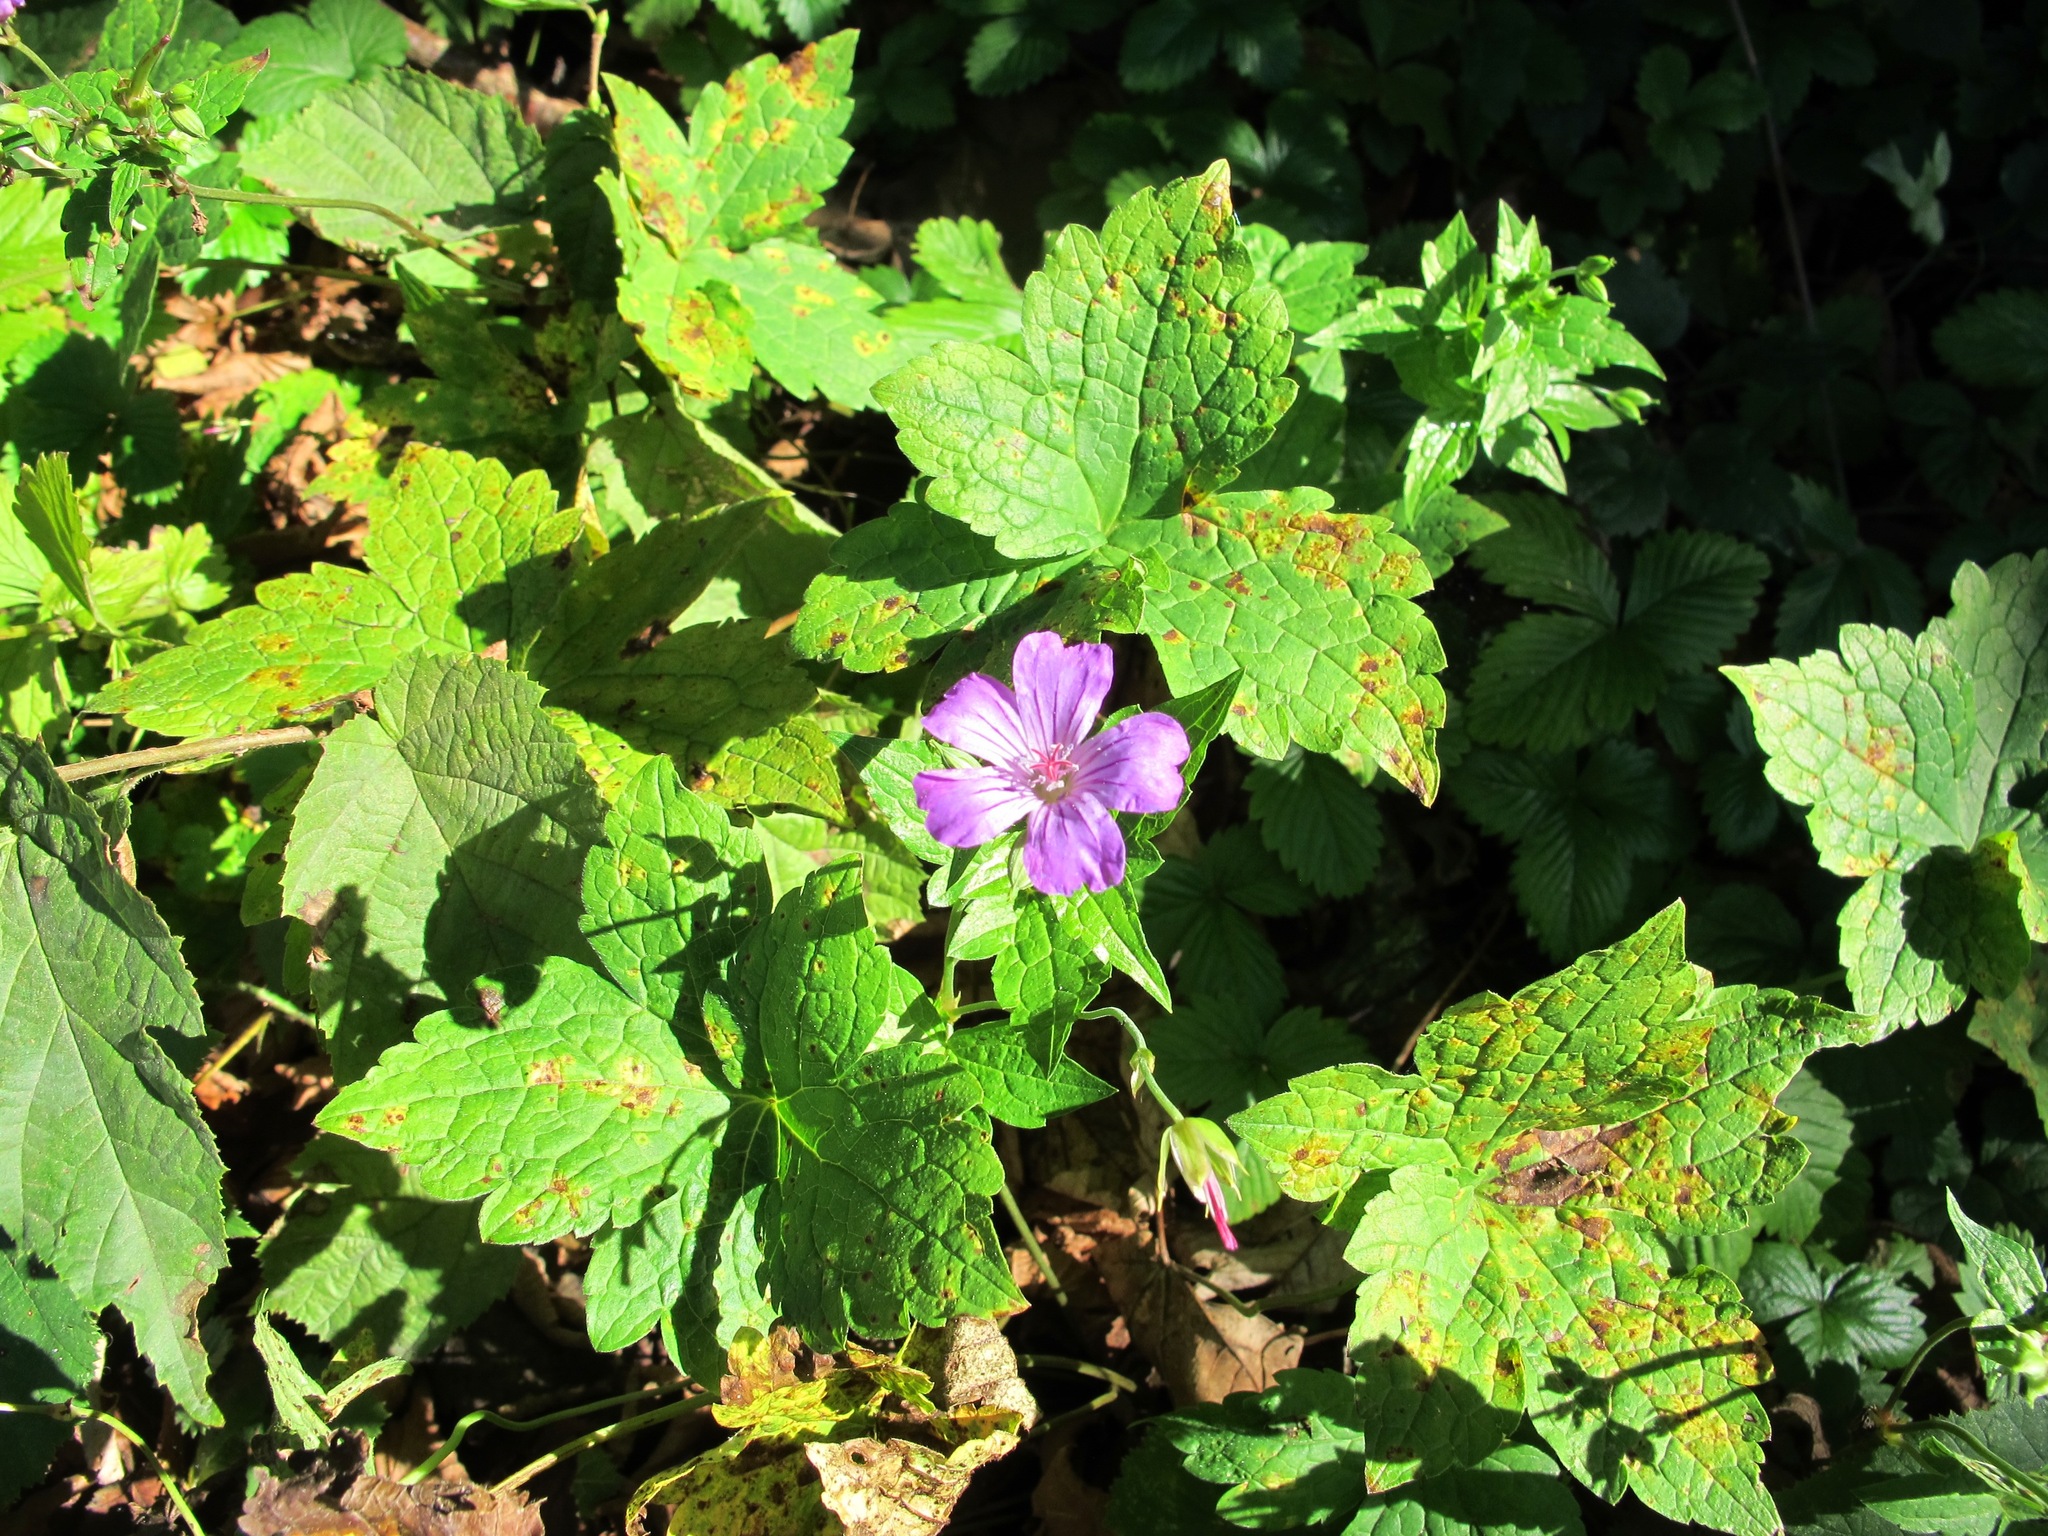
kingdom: Plantae
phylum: Tracheophyta
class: Magnoliopsida
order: Geraniales
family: Geraniaceae
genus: Geranium
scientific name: Geranium nodosum
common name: Knotted crane's-bill
